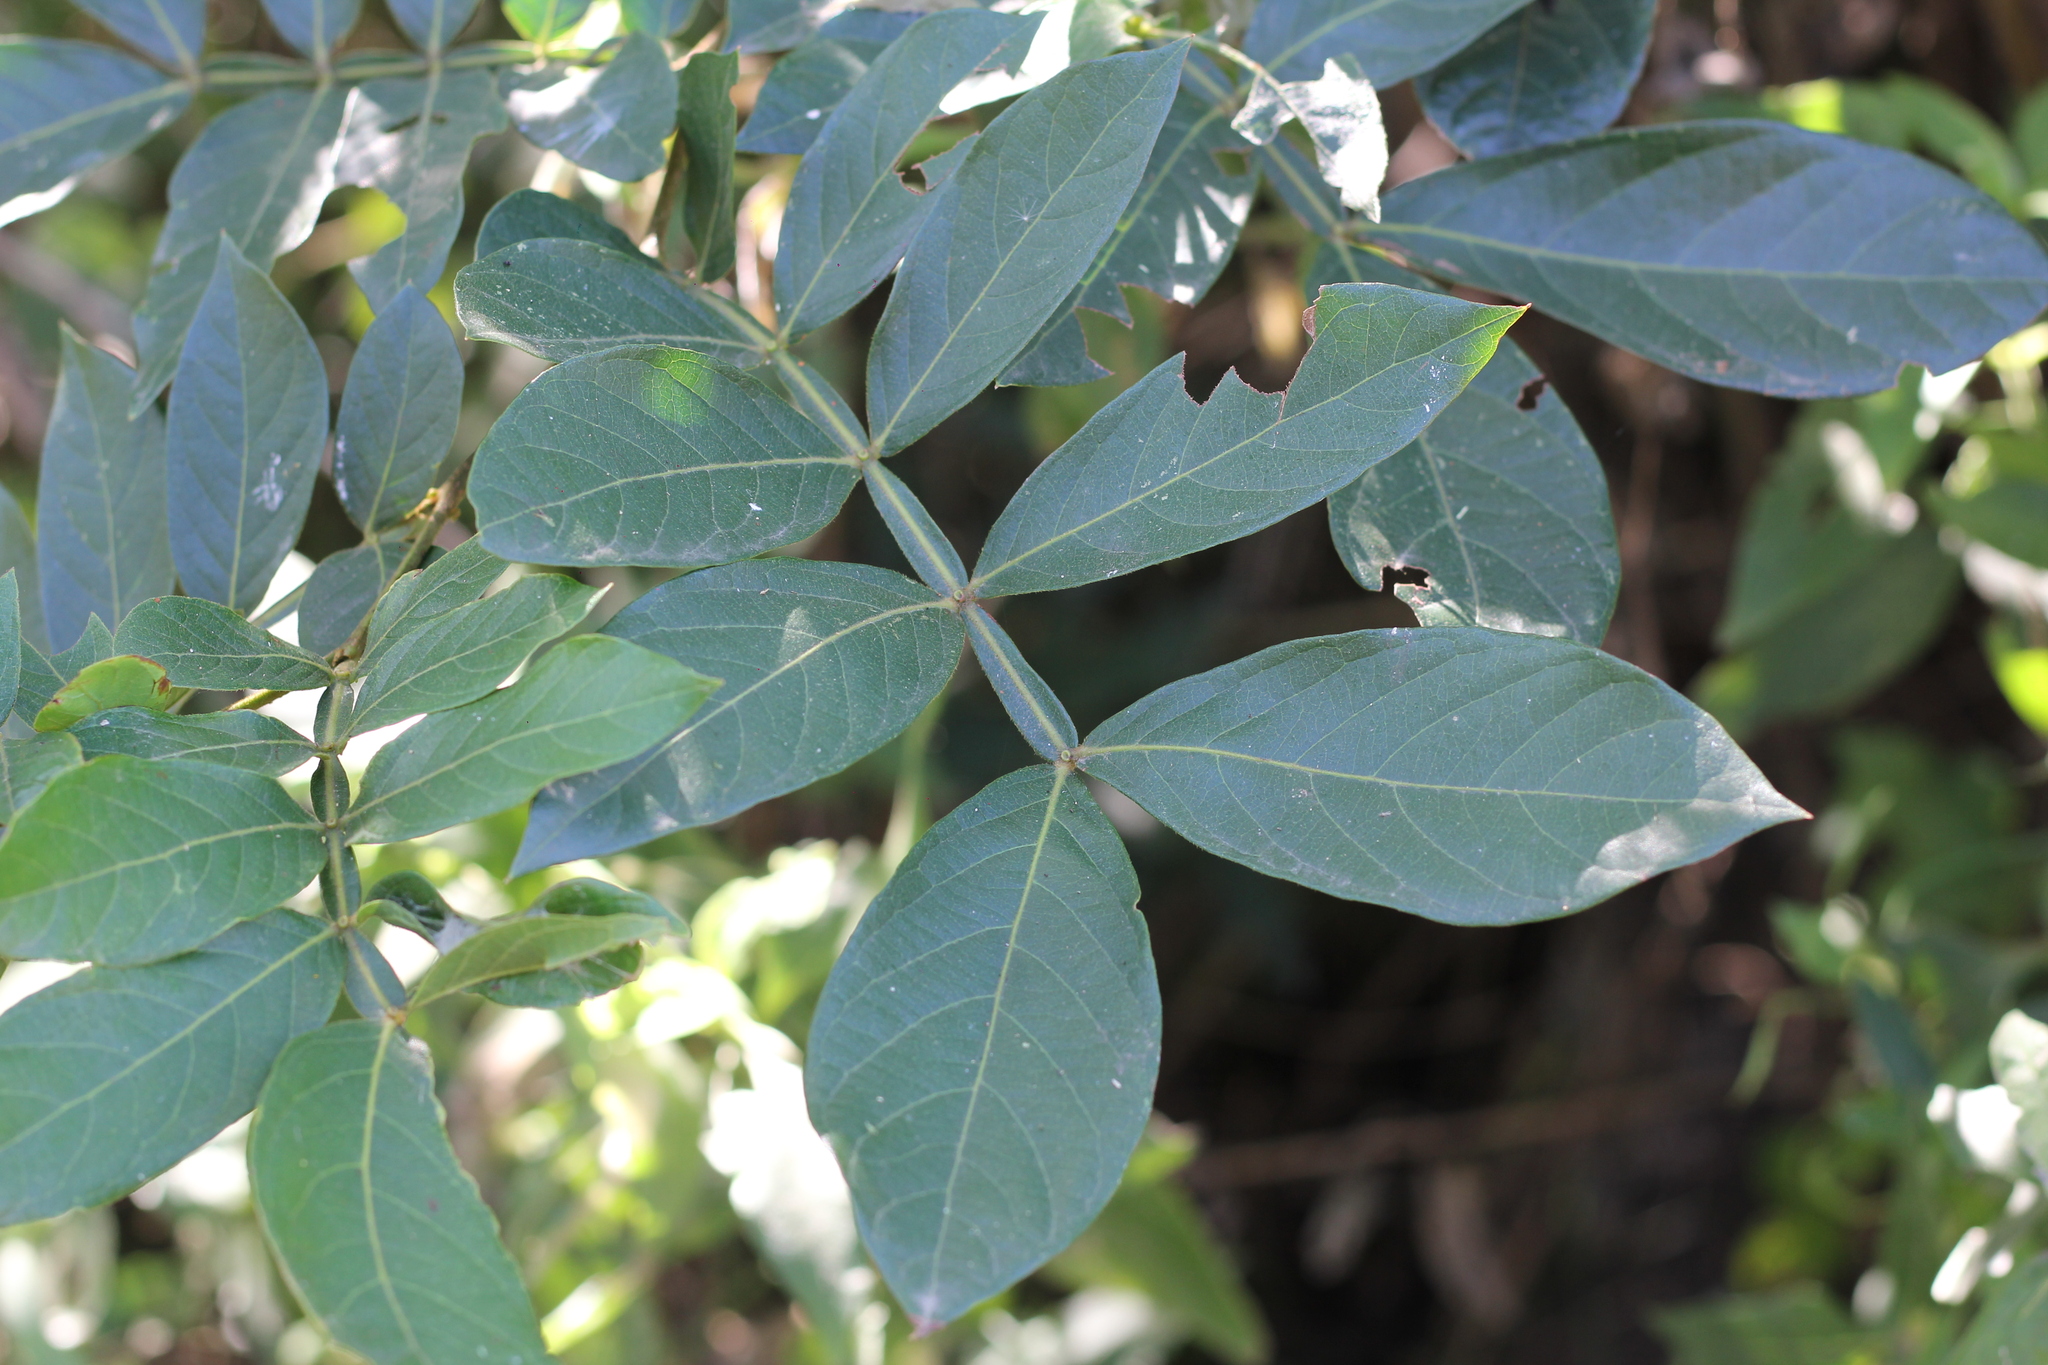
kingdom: Plantae
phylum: Tracheophyta
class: Magnoliopsida
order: Fabales
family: Fabaceae
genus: Inga
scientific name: Inga uraguensis
